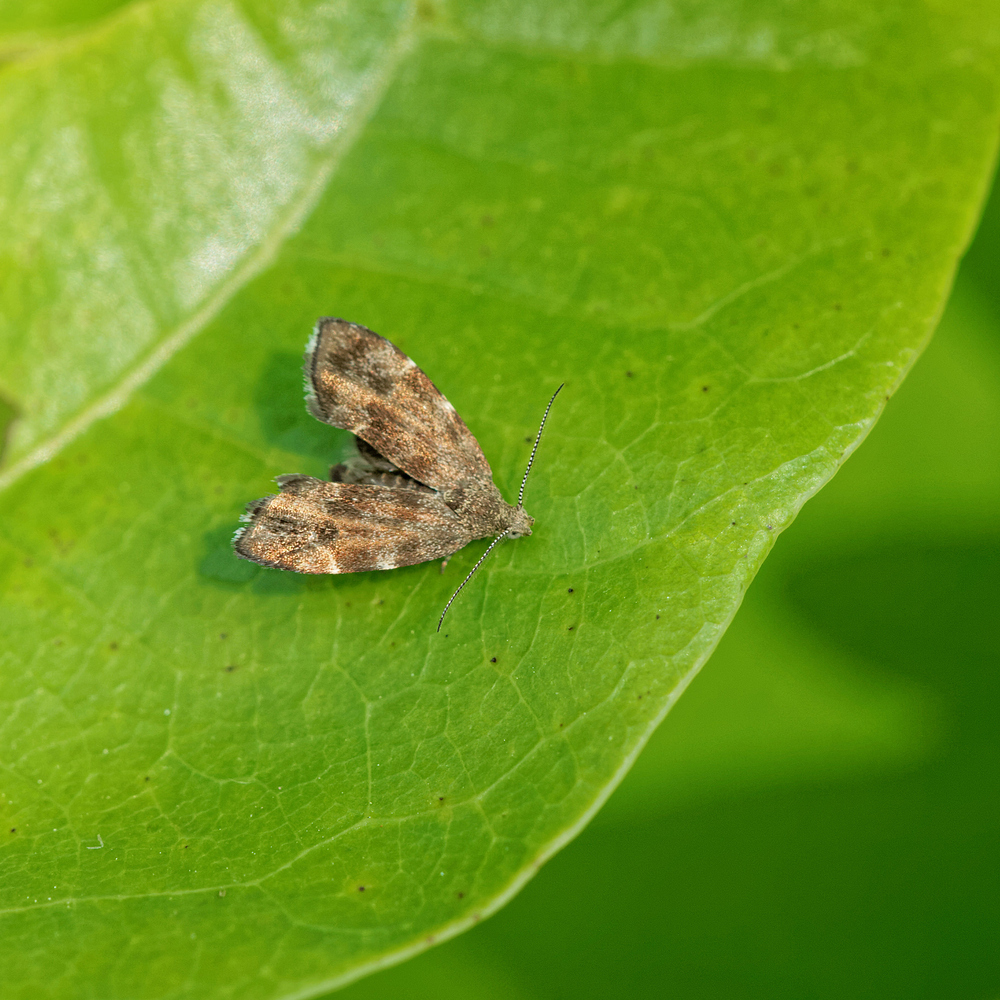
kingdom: Animalia
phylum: Arthropoda
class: Insecta
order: Lepidoptera
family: Choreutidae
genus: Anthophila
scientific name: Anthophila fabriciana
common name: Nettle-tap
